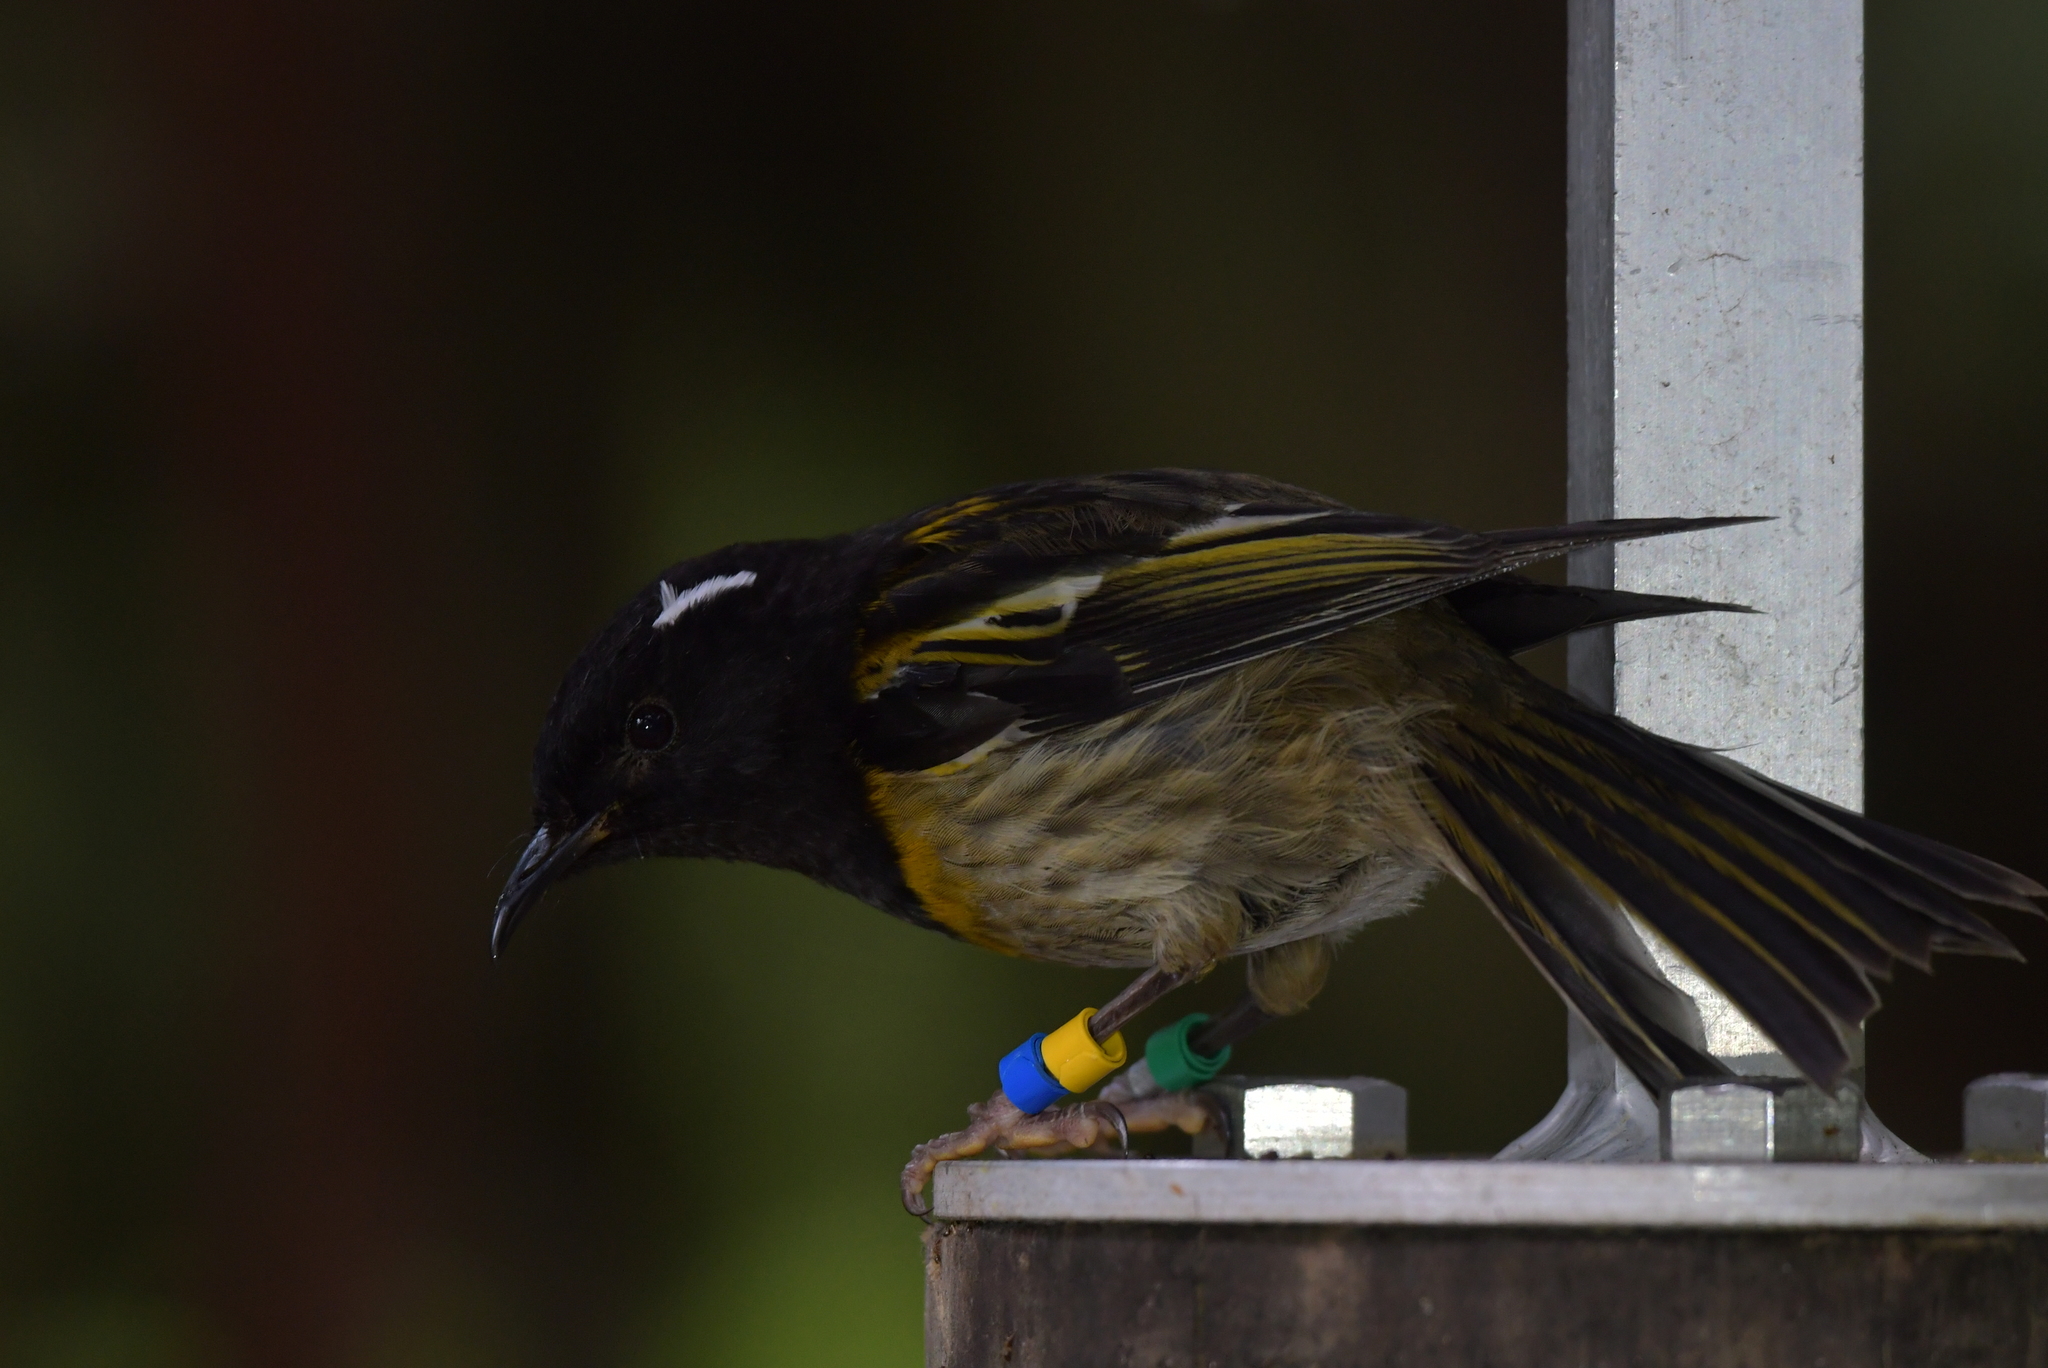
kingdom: Animalia
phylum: Chordata
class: Aves
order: Passeriformes
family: Notiomystidae
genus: Notiomystis
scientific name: Notiomystis cincta
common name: Stitchbird
